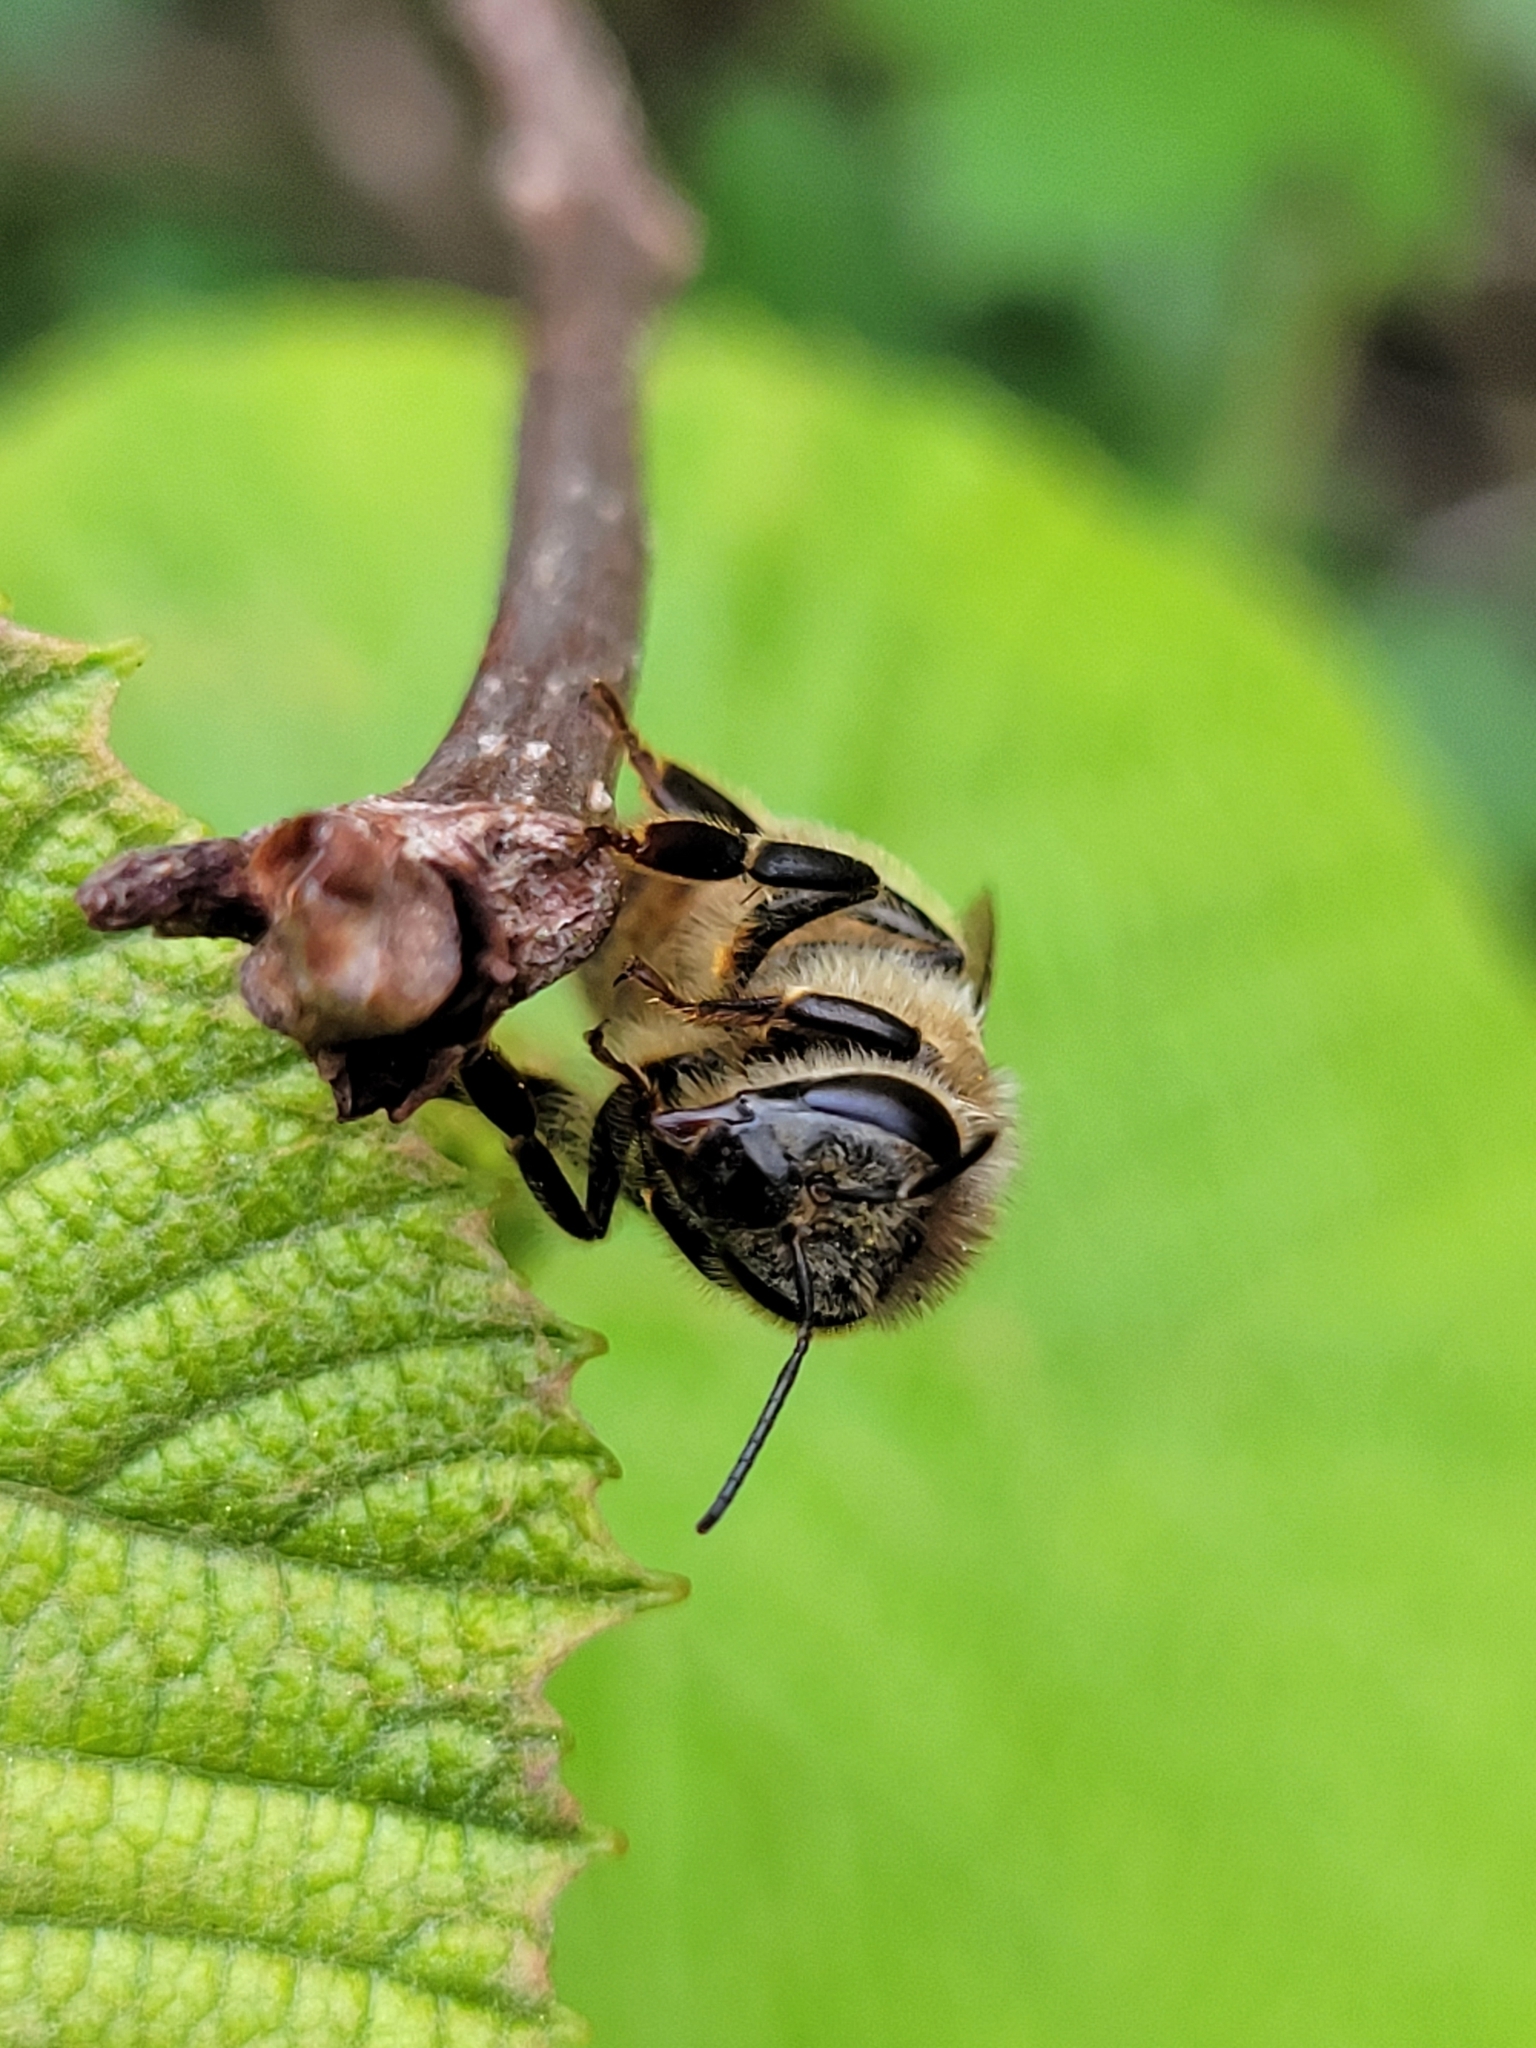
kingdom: Animalia
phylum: Arthropoda
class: Insecta
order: Hymenoptera
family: Apidae
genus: Apis
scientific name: Apis mellifera
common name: Honey bee
